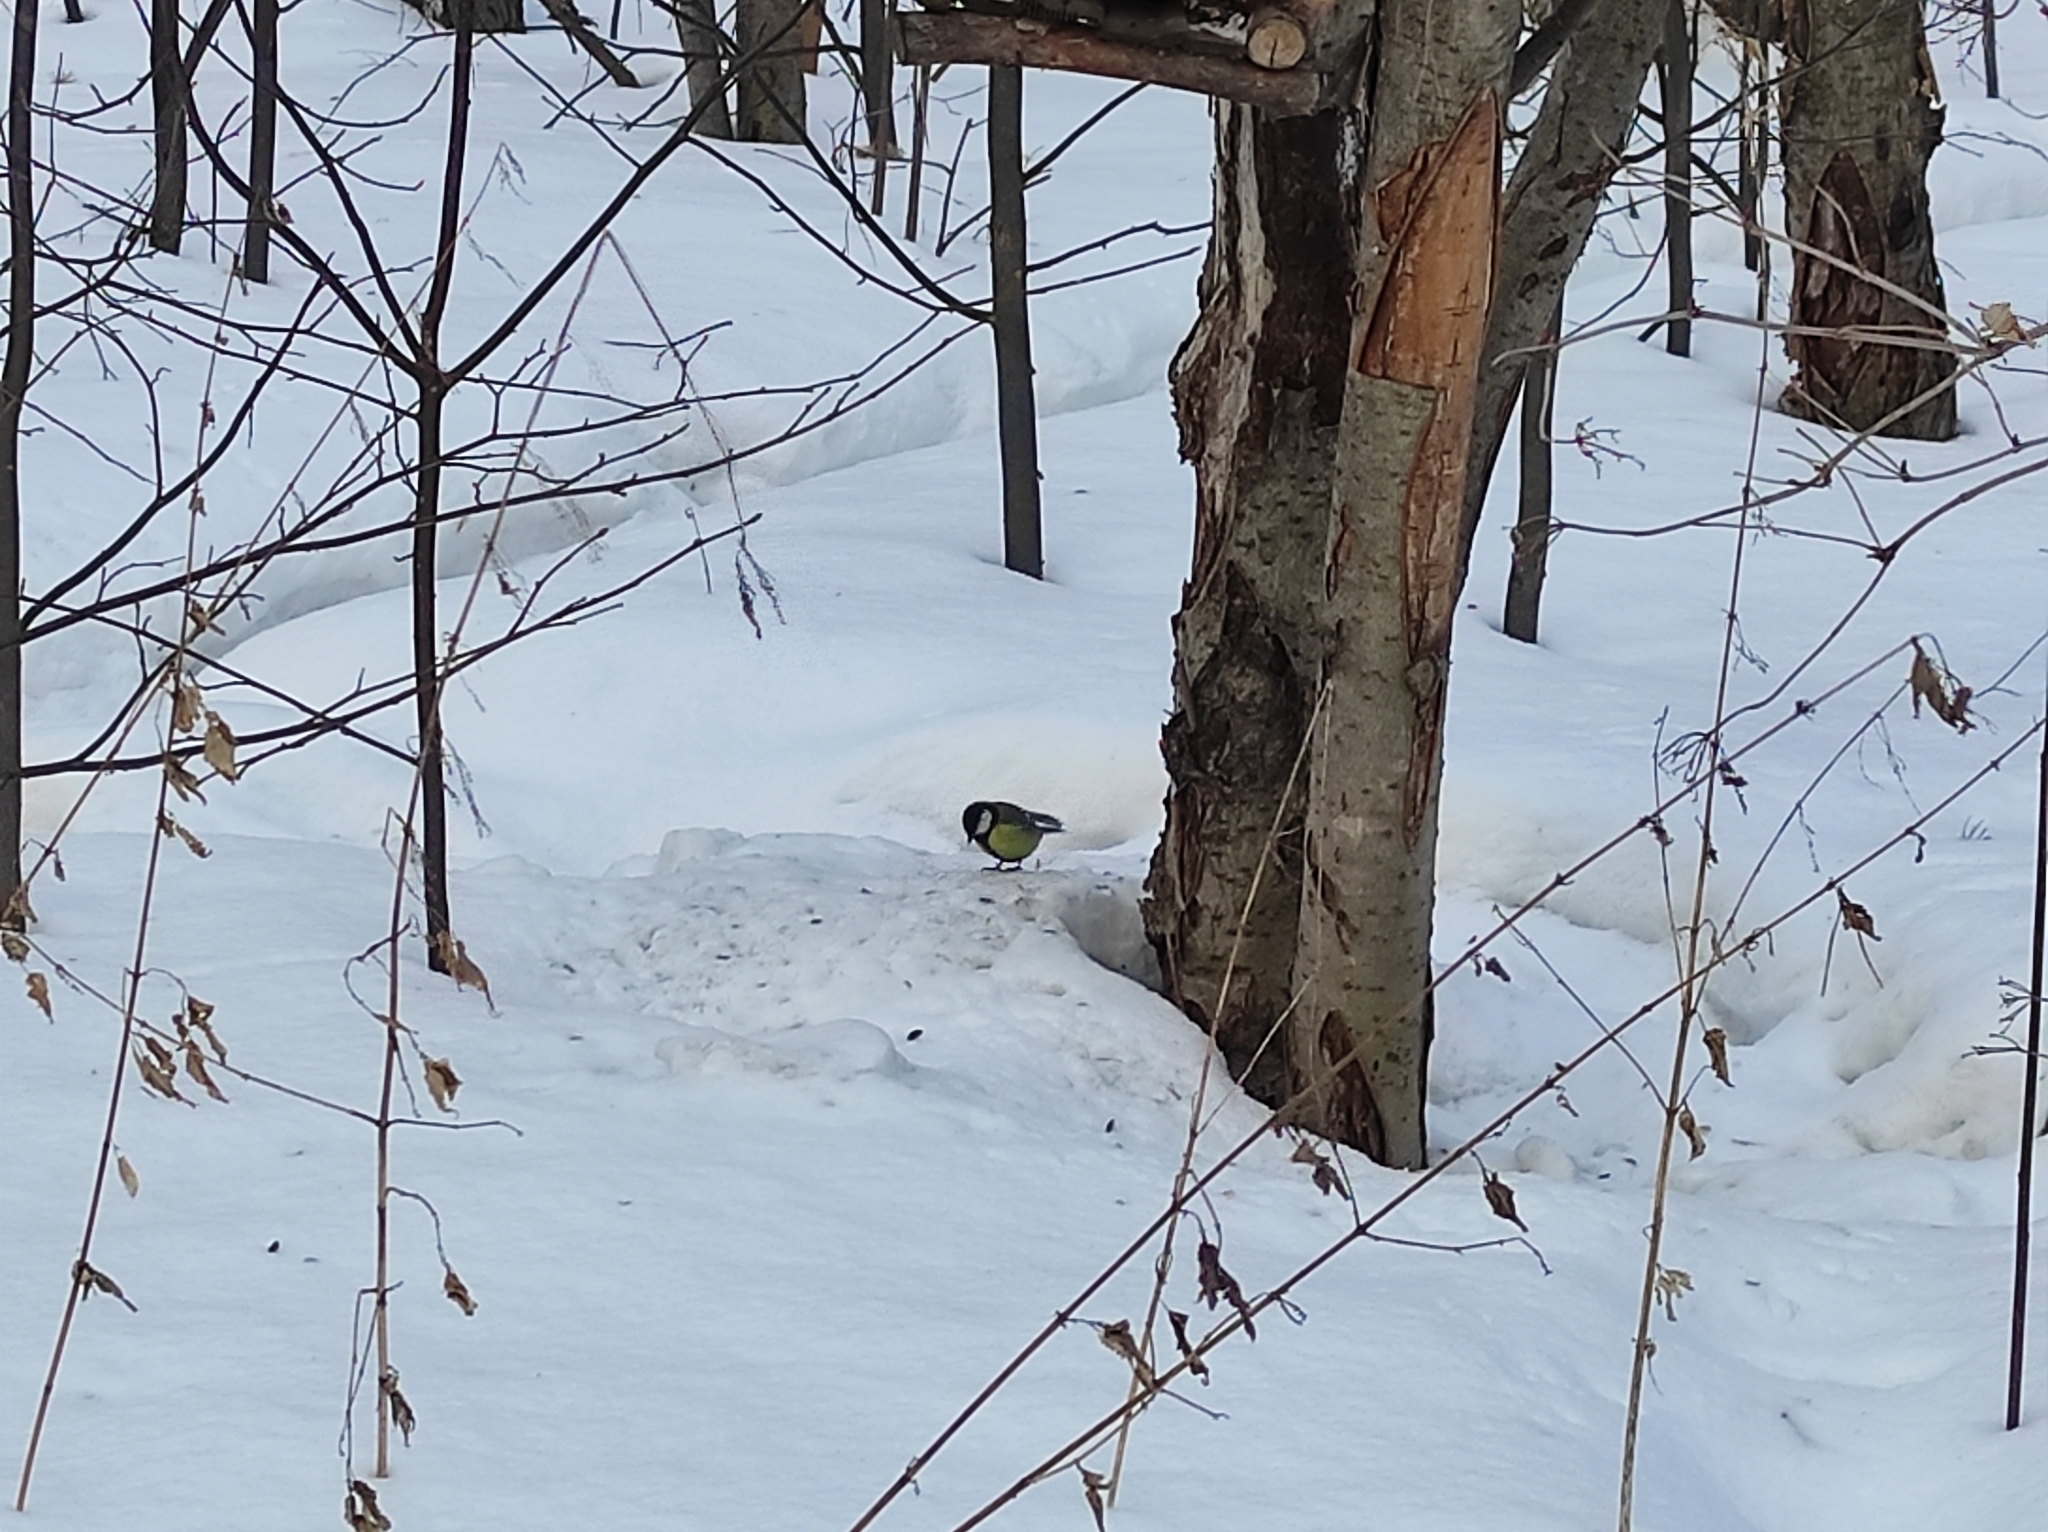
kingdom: Animalia
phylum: Chordata
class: Aves
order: Passeriformes
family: Paridae
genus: Parus
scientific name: Parus major
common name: Great tit
